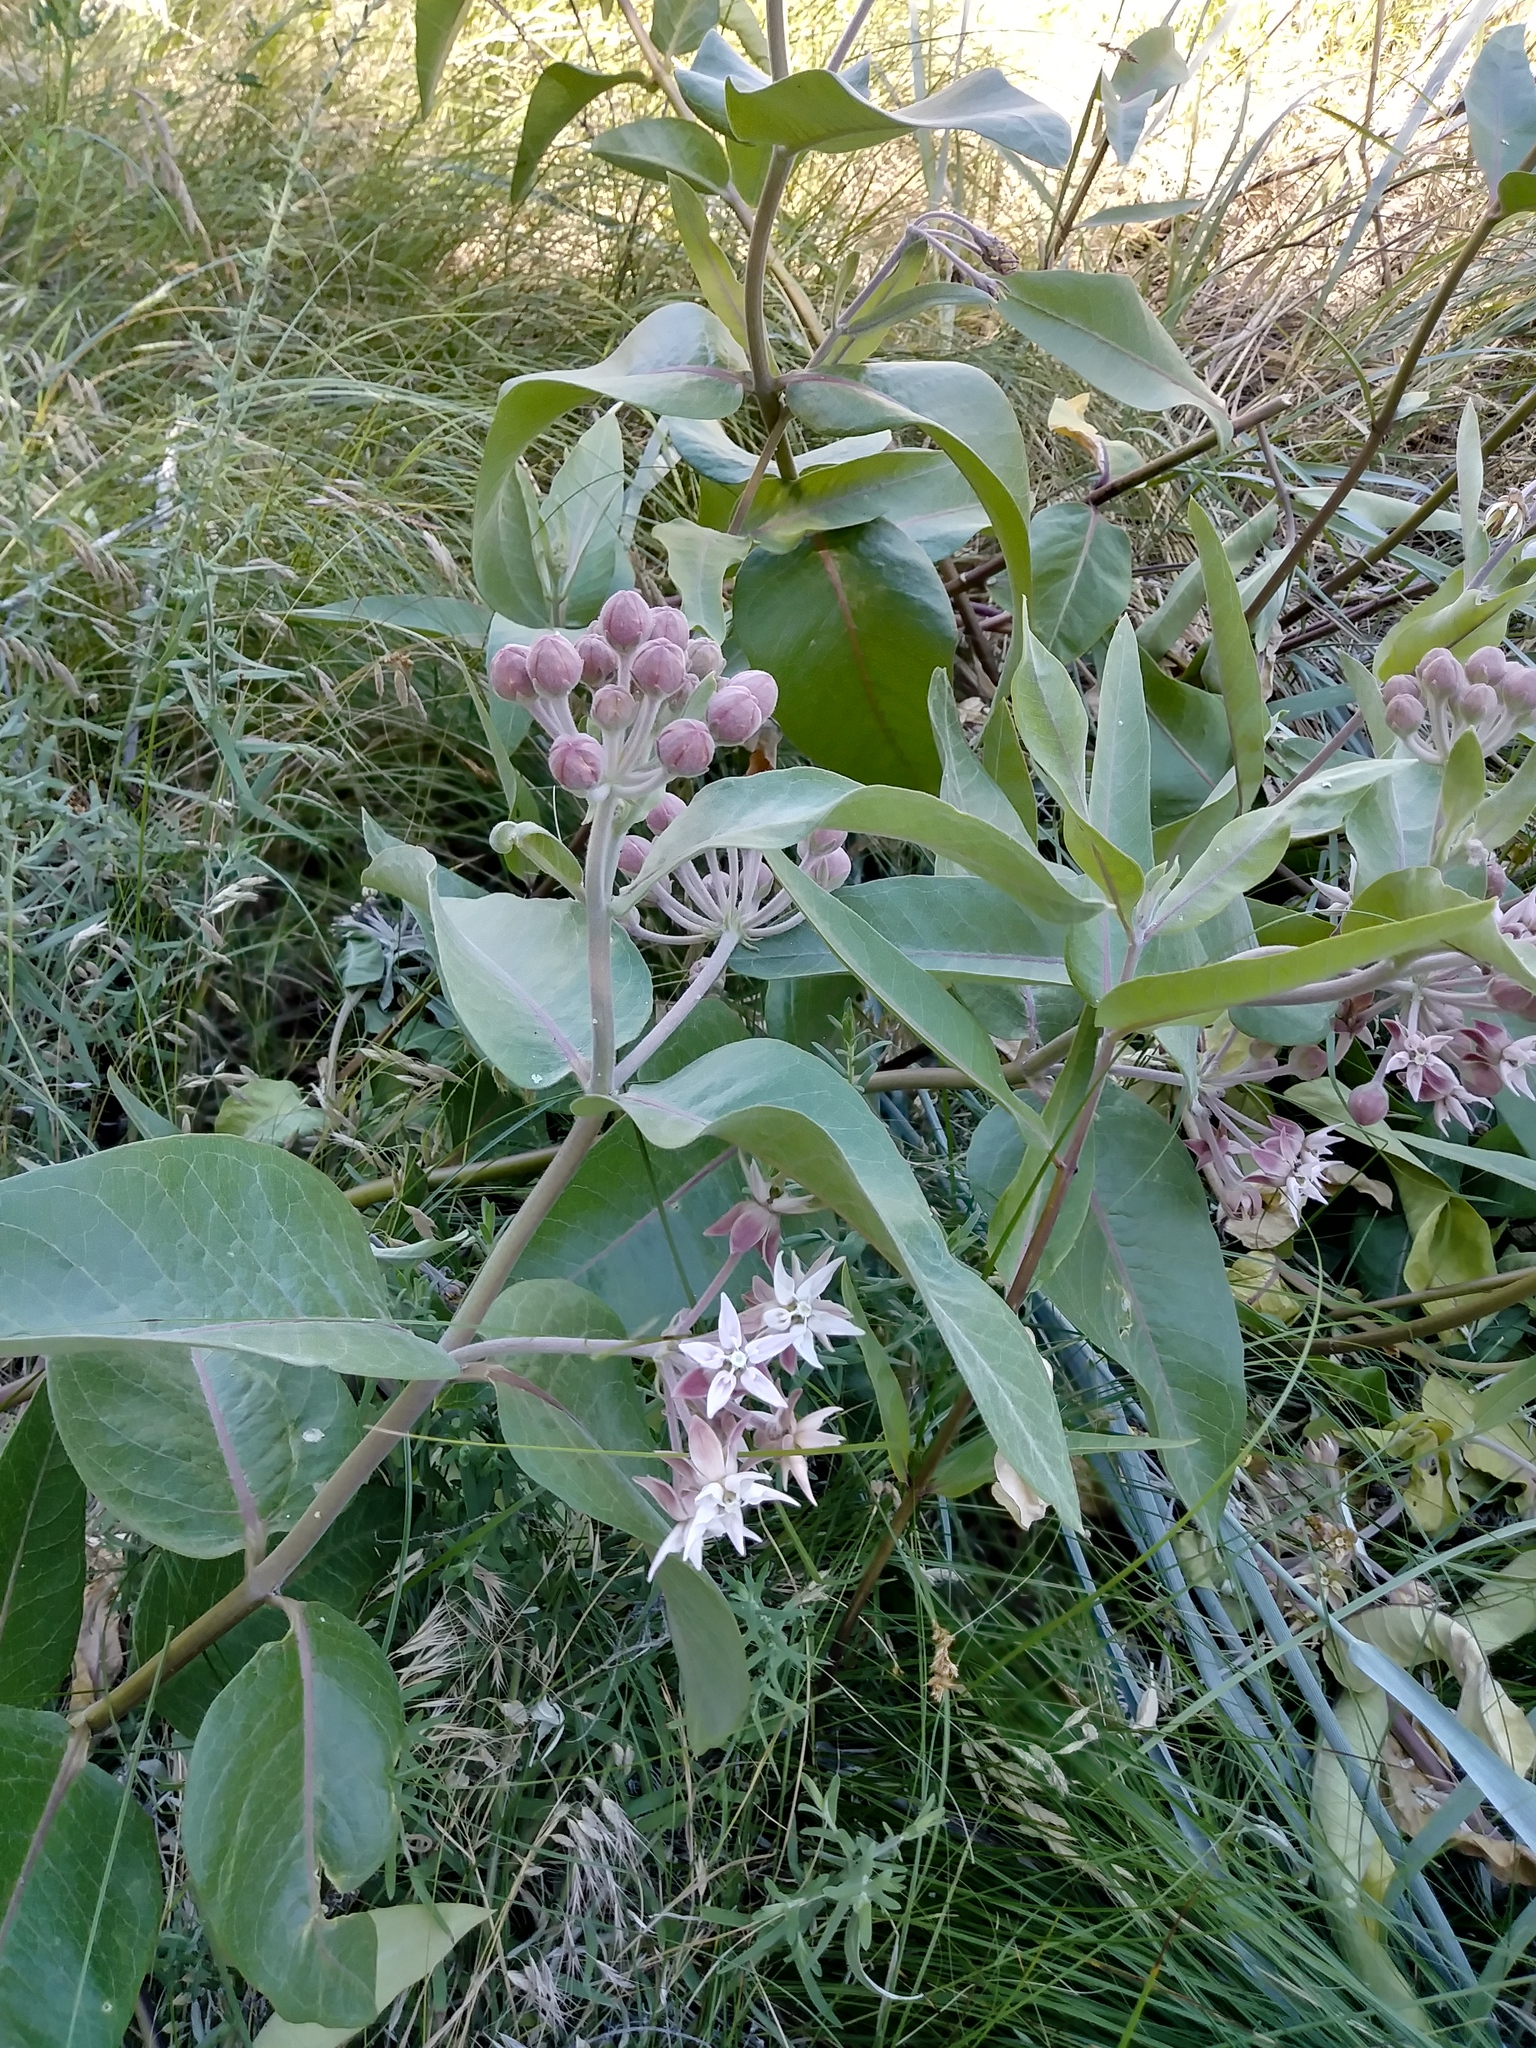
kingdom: Plantae
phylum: Tracheophyta
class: Magnoliopsida
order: Gentianales
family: Apocynaceae
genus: Asclepias
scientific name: Asclepias speciosa
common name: Showy milkweed
